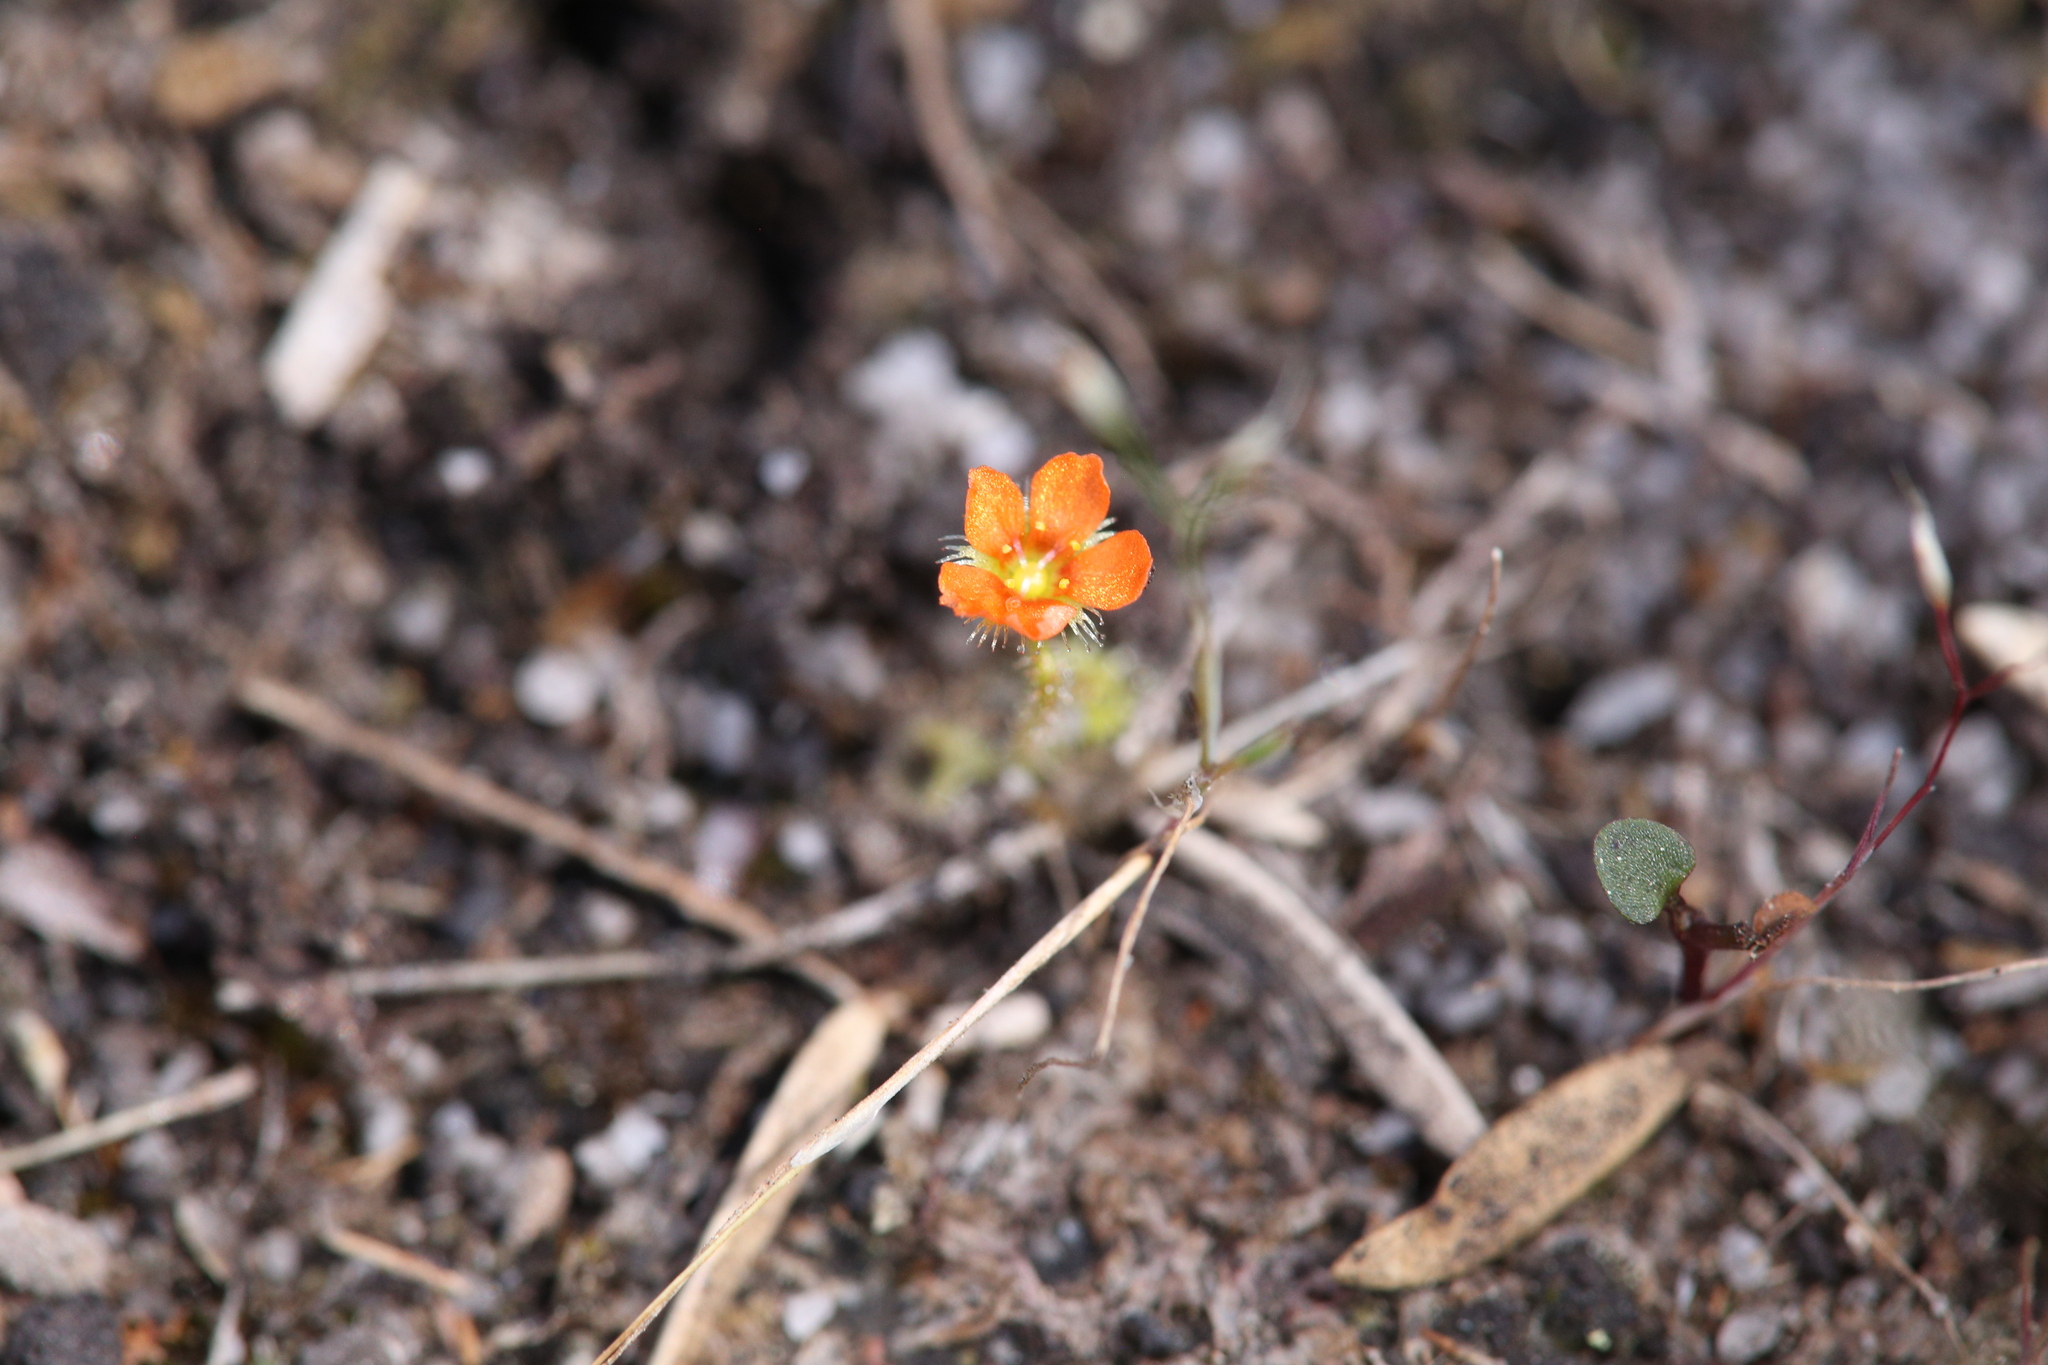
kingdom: Plantae
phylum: Tracheophyta
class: Magnoliopsida
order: Caryophyllales
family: Droseraceae
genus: Drosera
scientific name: Drosera glanduligera
